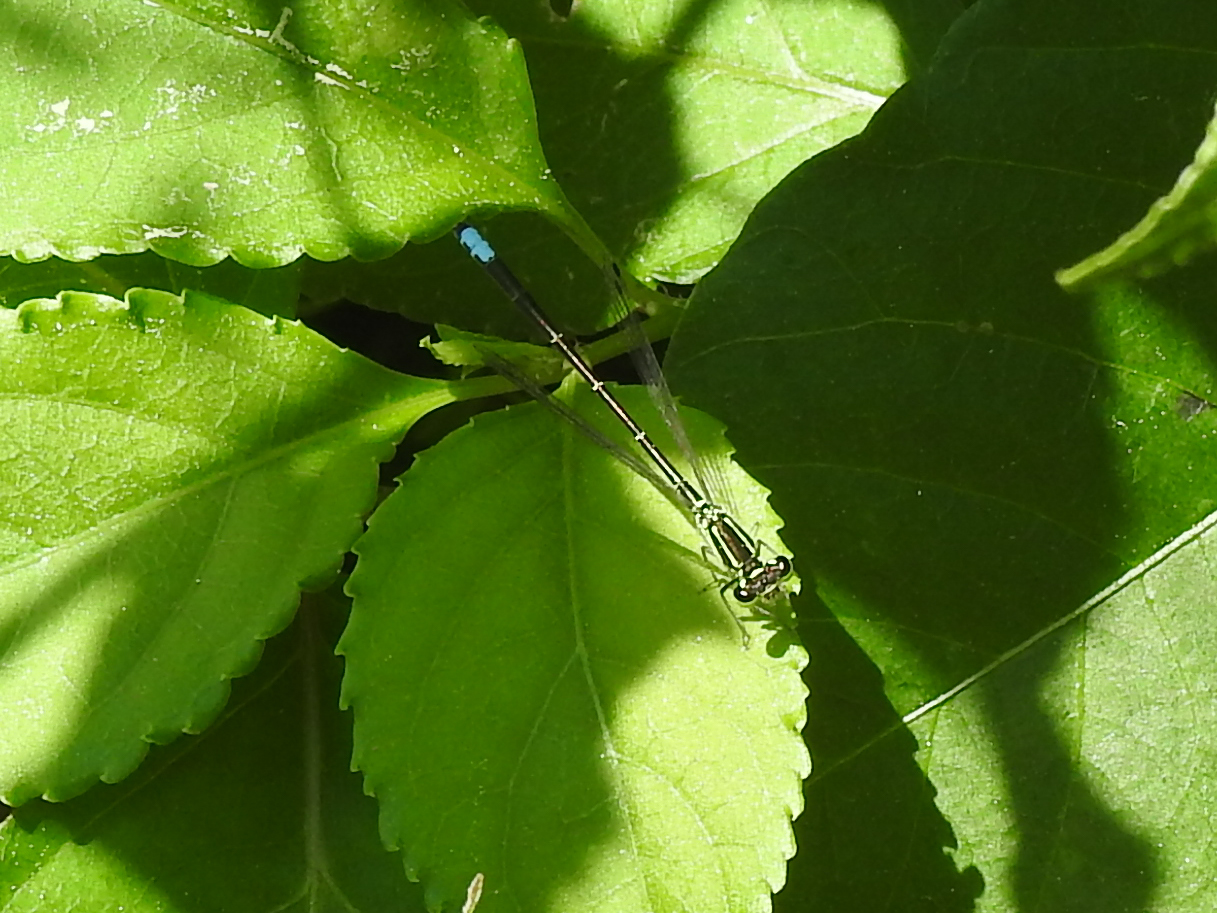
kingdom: Animalia
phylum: Arthropoda
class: Insecta
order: Odonata
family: Coenagrionidae
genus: Ischnura
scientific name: Ischnura verticalis
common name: Eastern forktail
